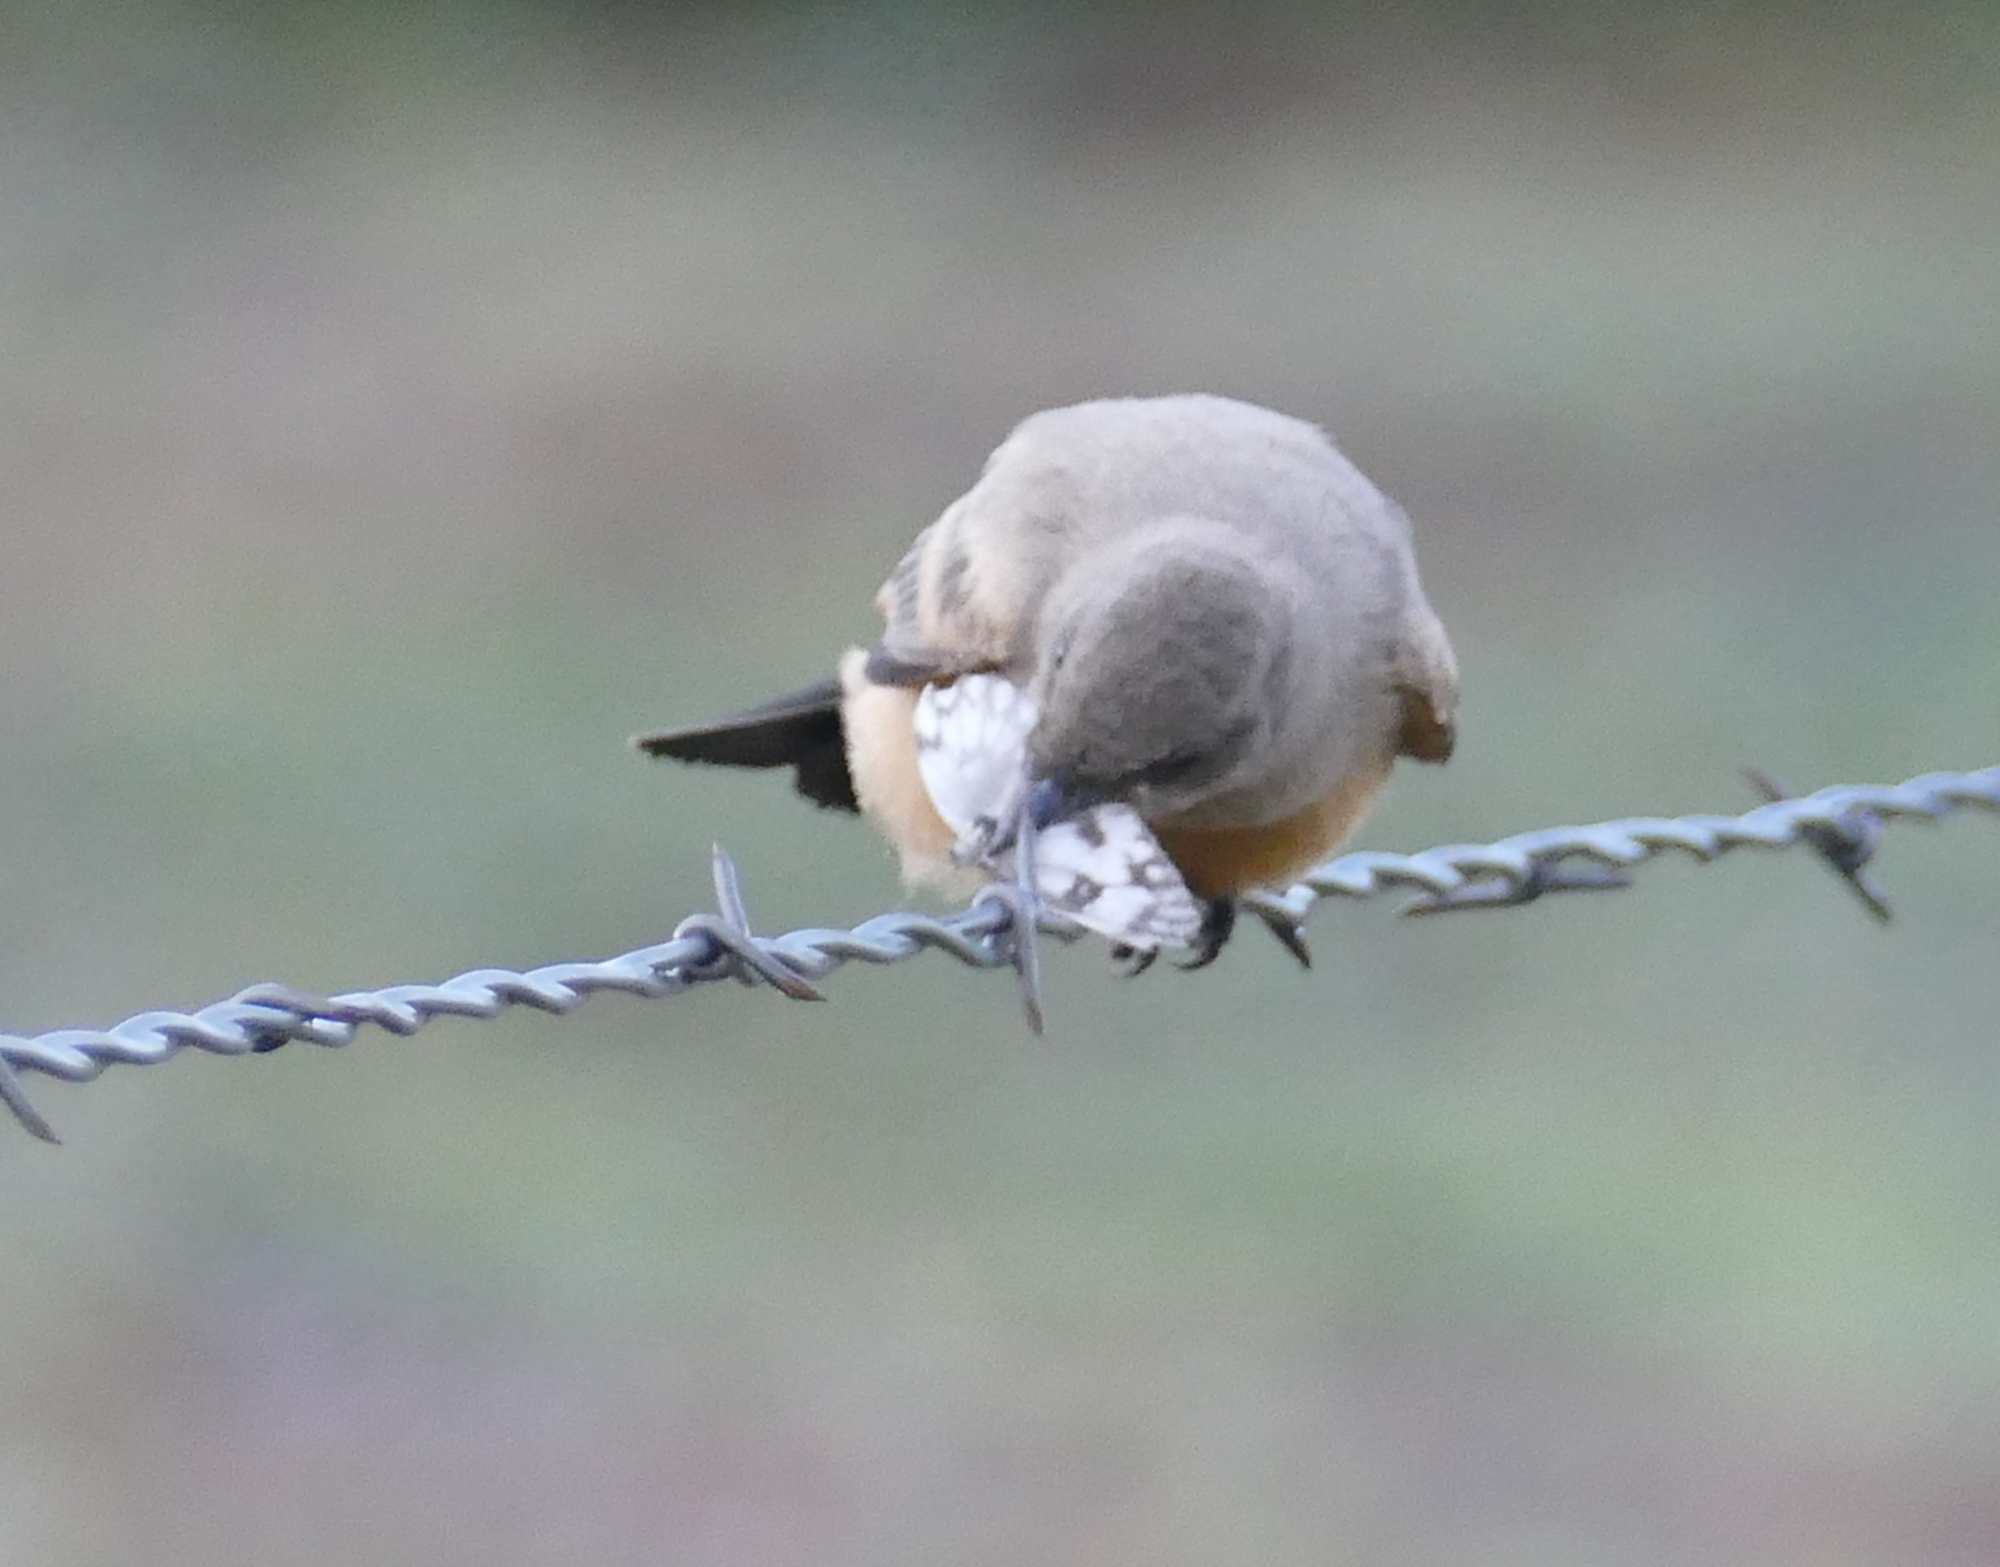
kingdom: Animalia
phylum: Arthropoda
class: Insecta
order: Lepidoptera
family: Pieridae
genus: Pontia
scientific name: Pontia protodice
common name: Checkered white
